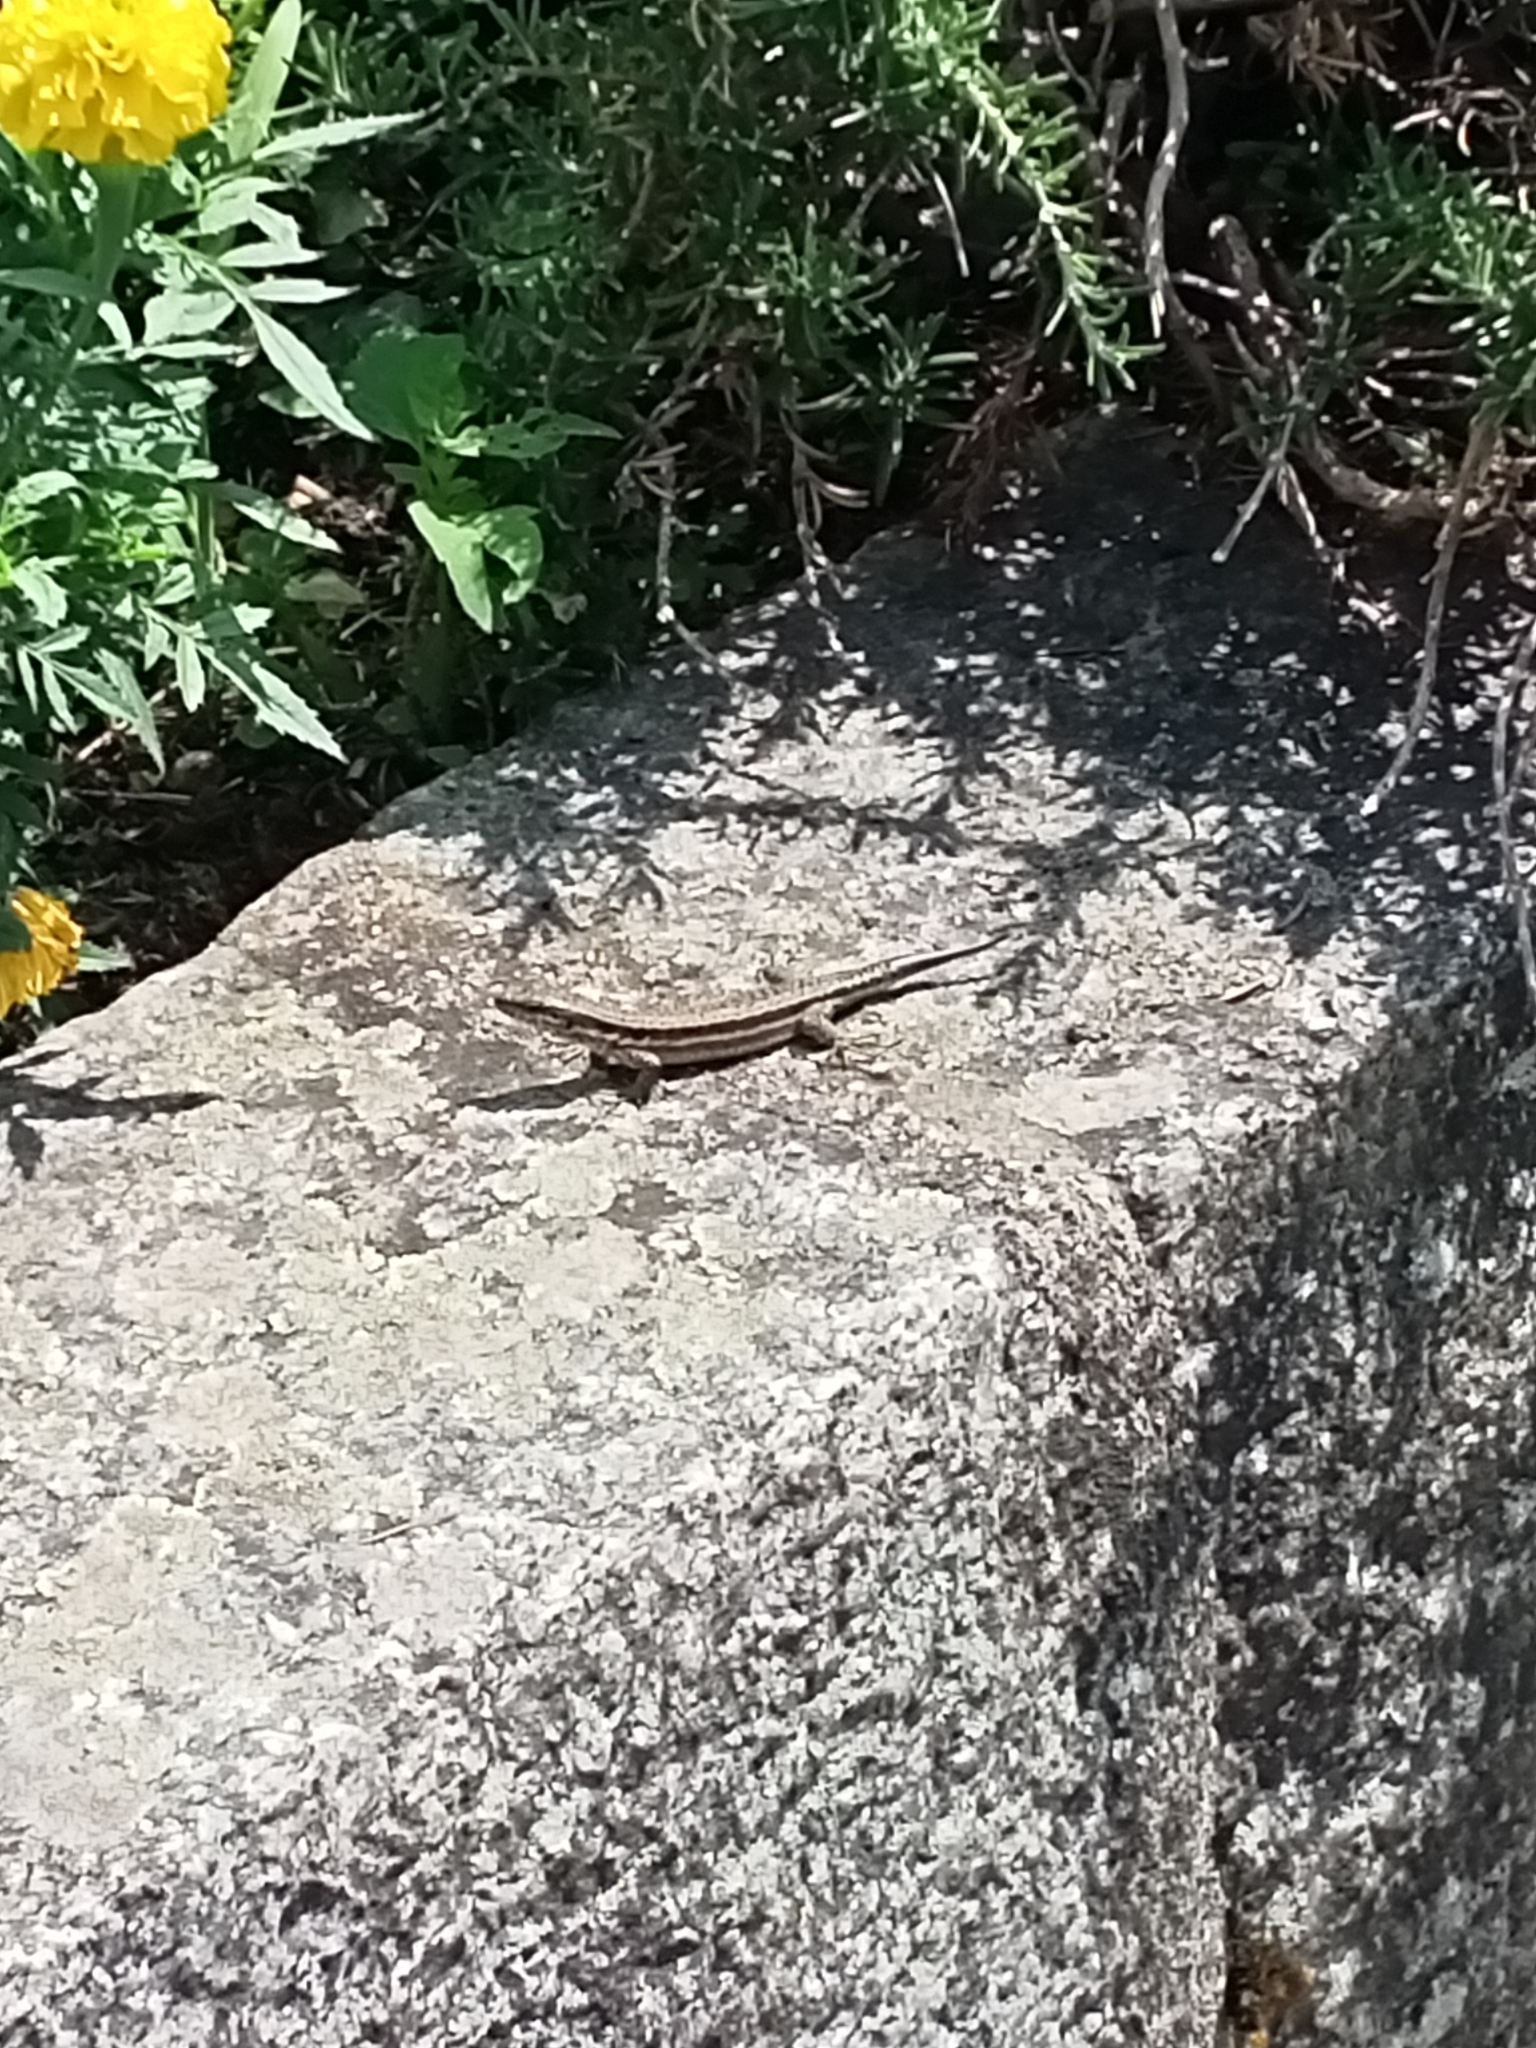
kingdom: Animalia
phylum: Chordata
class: Squamata
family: Lacertidae
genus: Podarcis
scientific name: Podarcis muralis
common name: Common wall lizard
